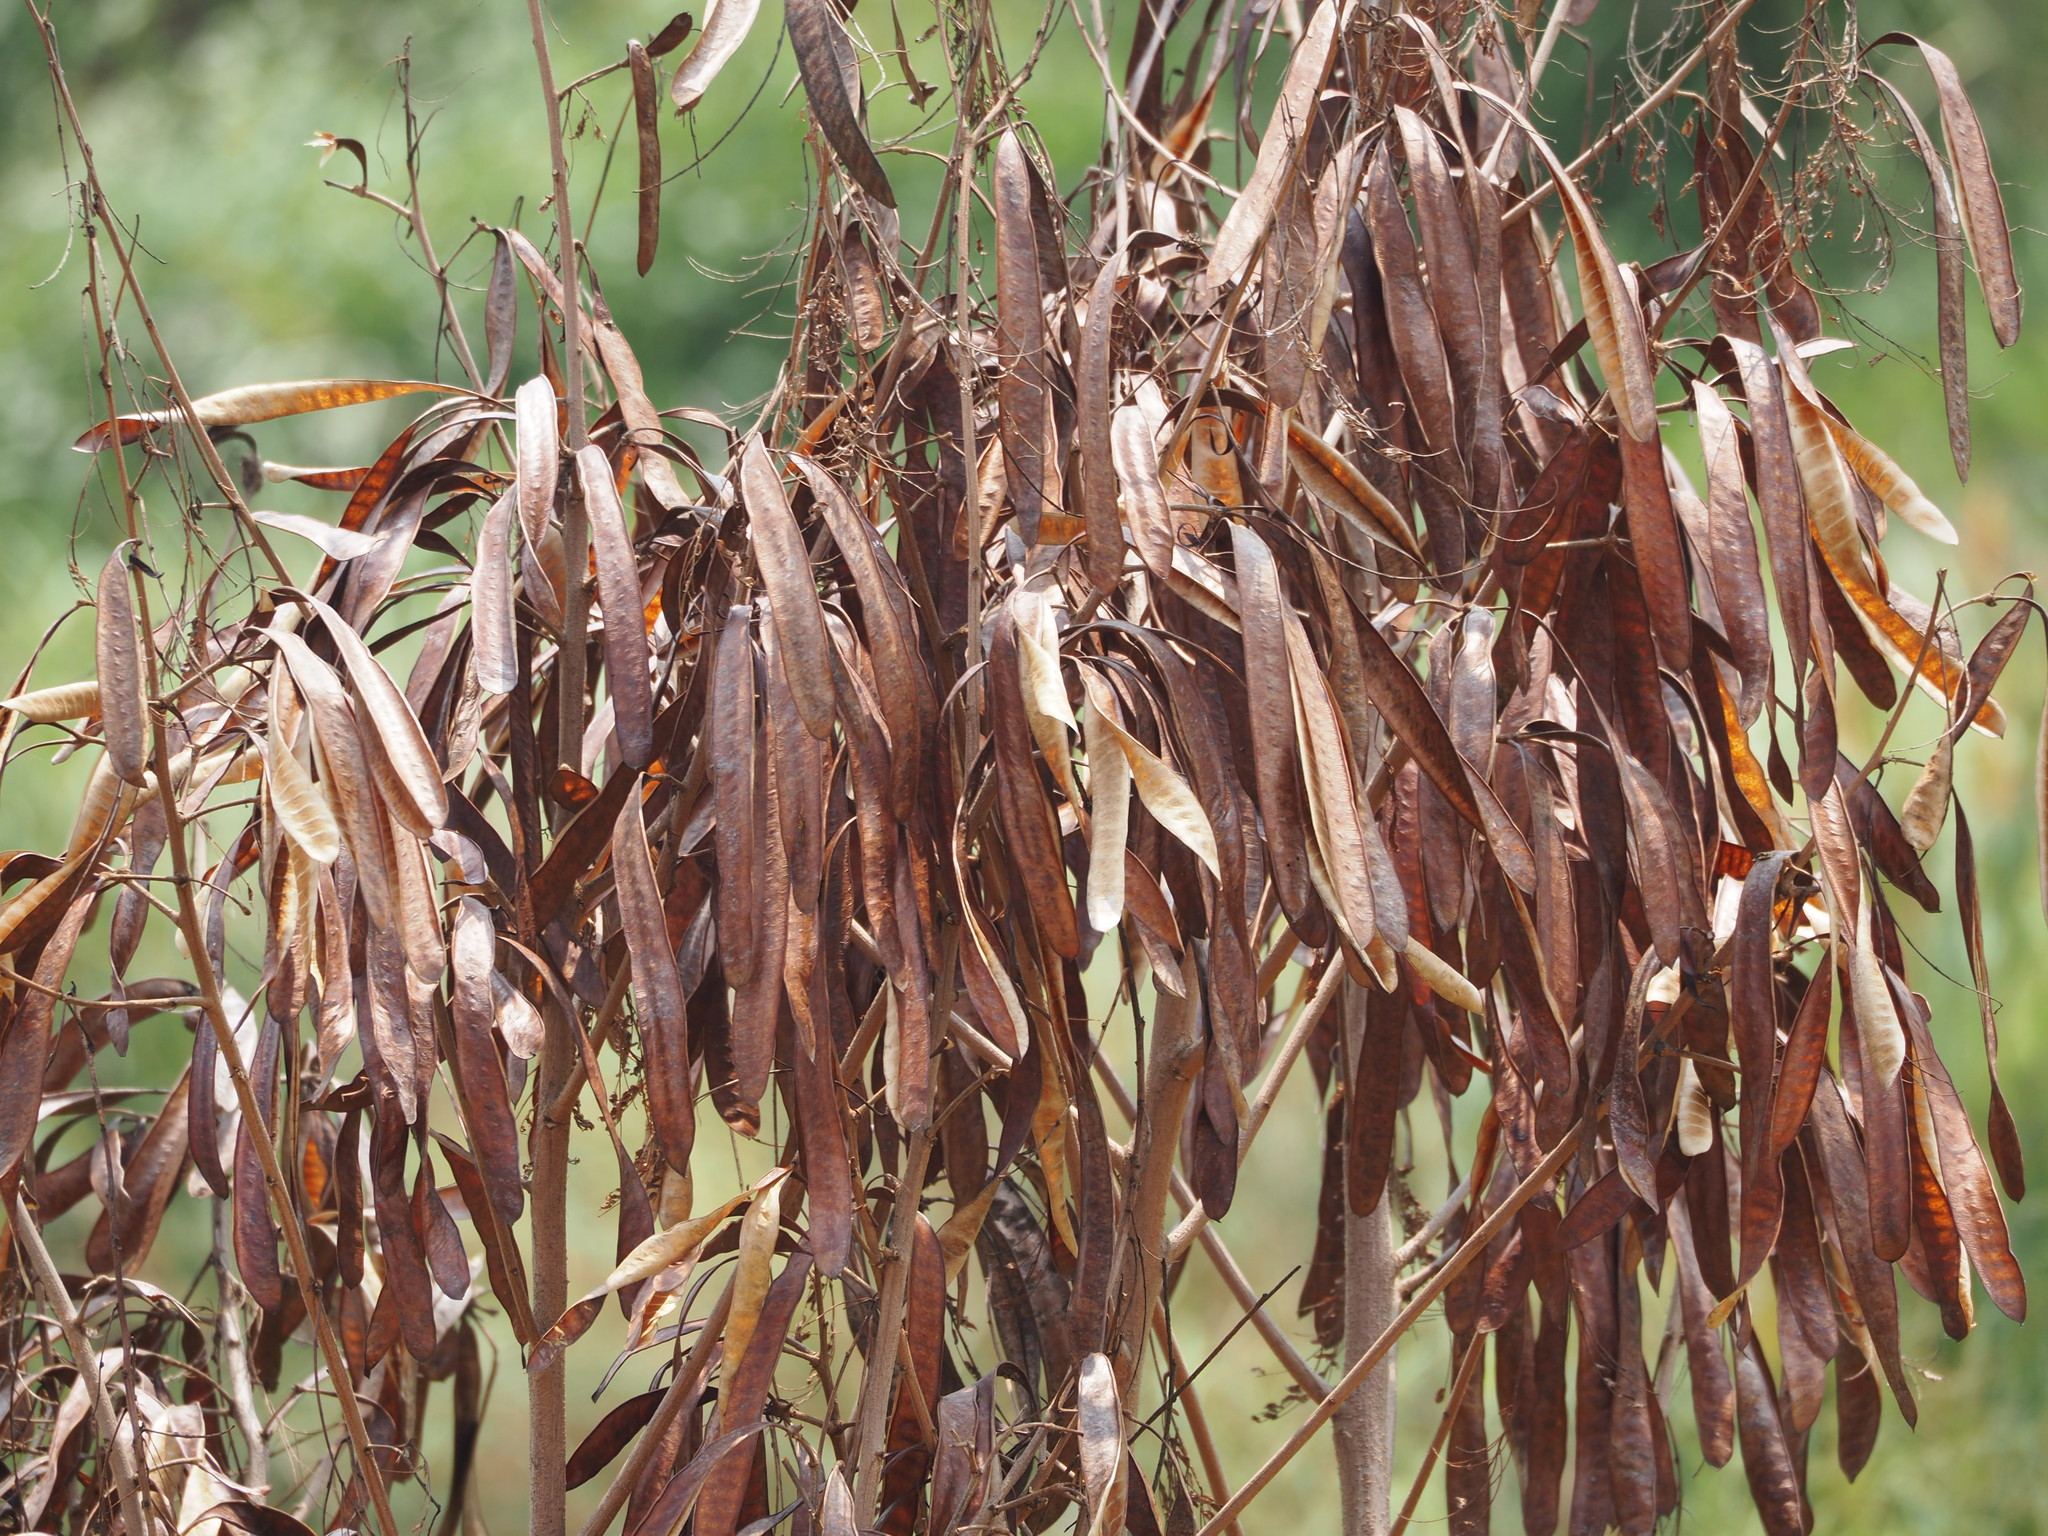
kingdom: Plantae
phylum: Tracheophyta
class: Magnoliopsida
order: Fabales
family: Fabaceae
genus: Leucaena
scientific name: Leucaena leucocephala
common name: White leadtree
